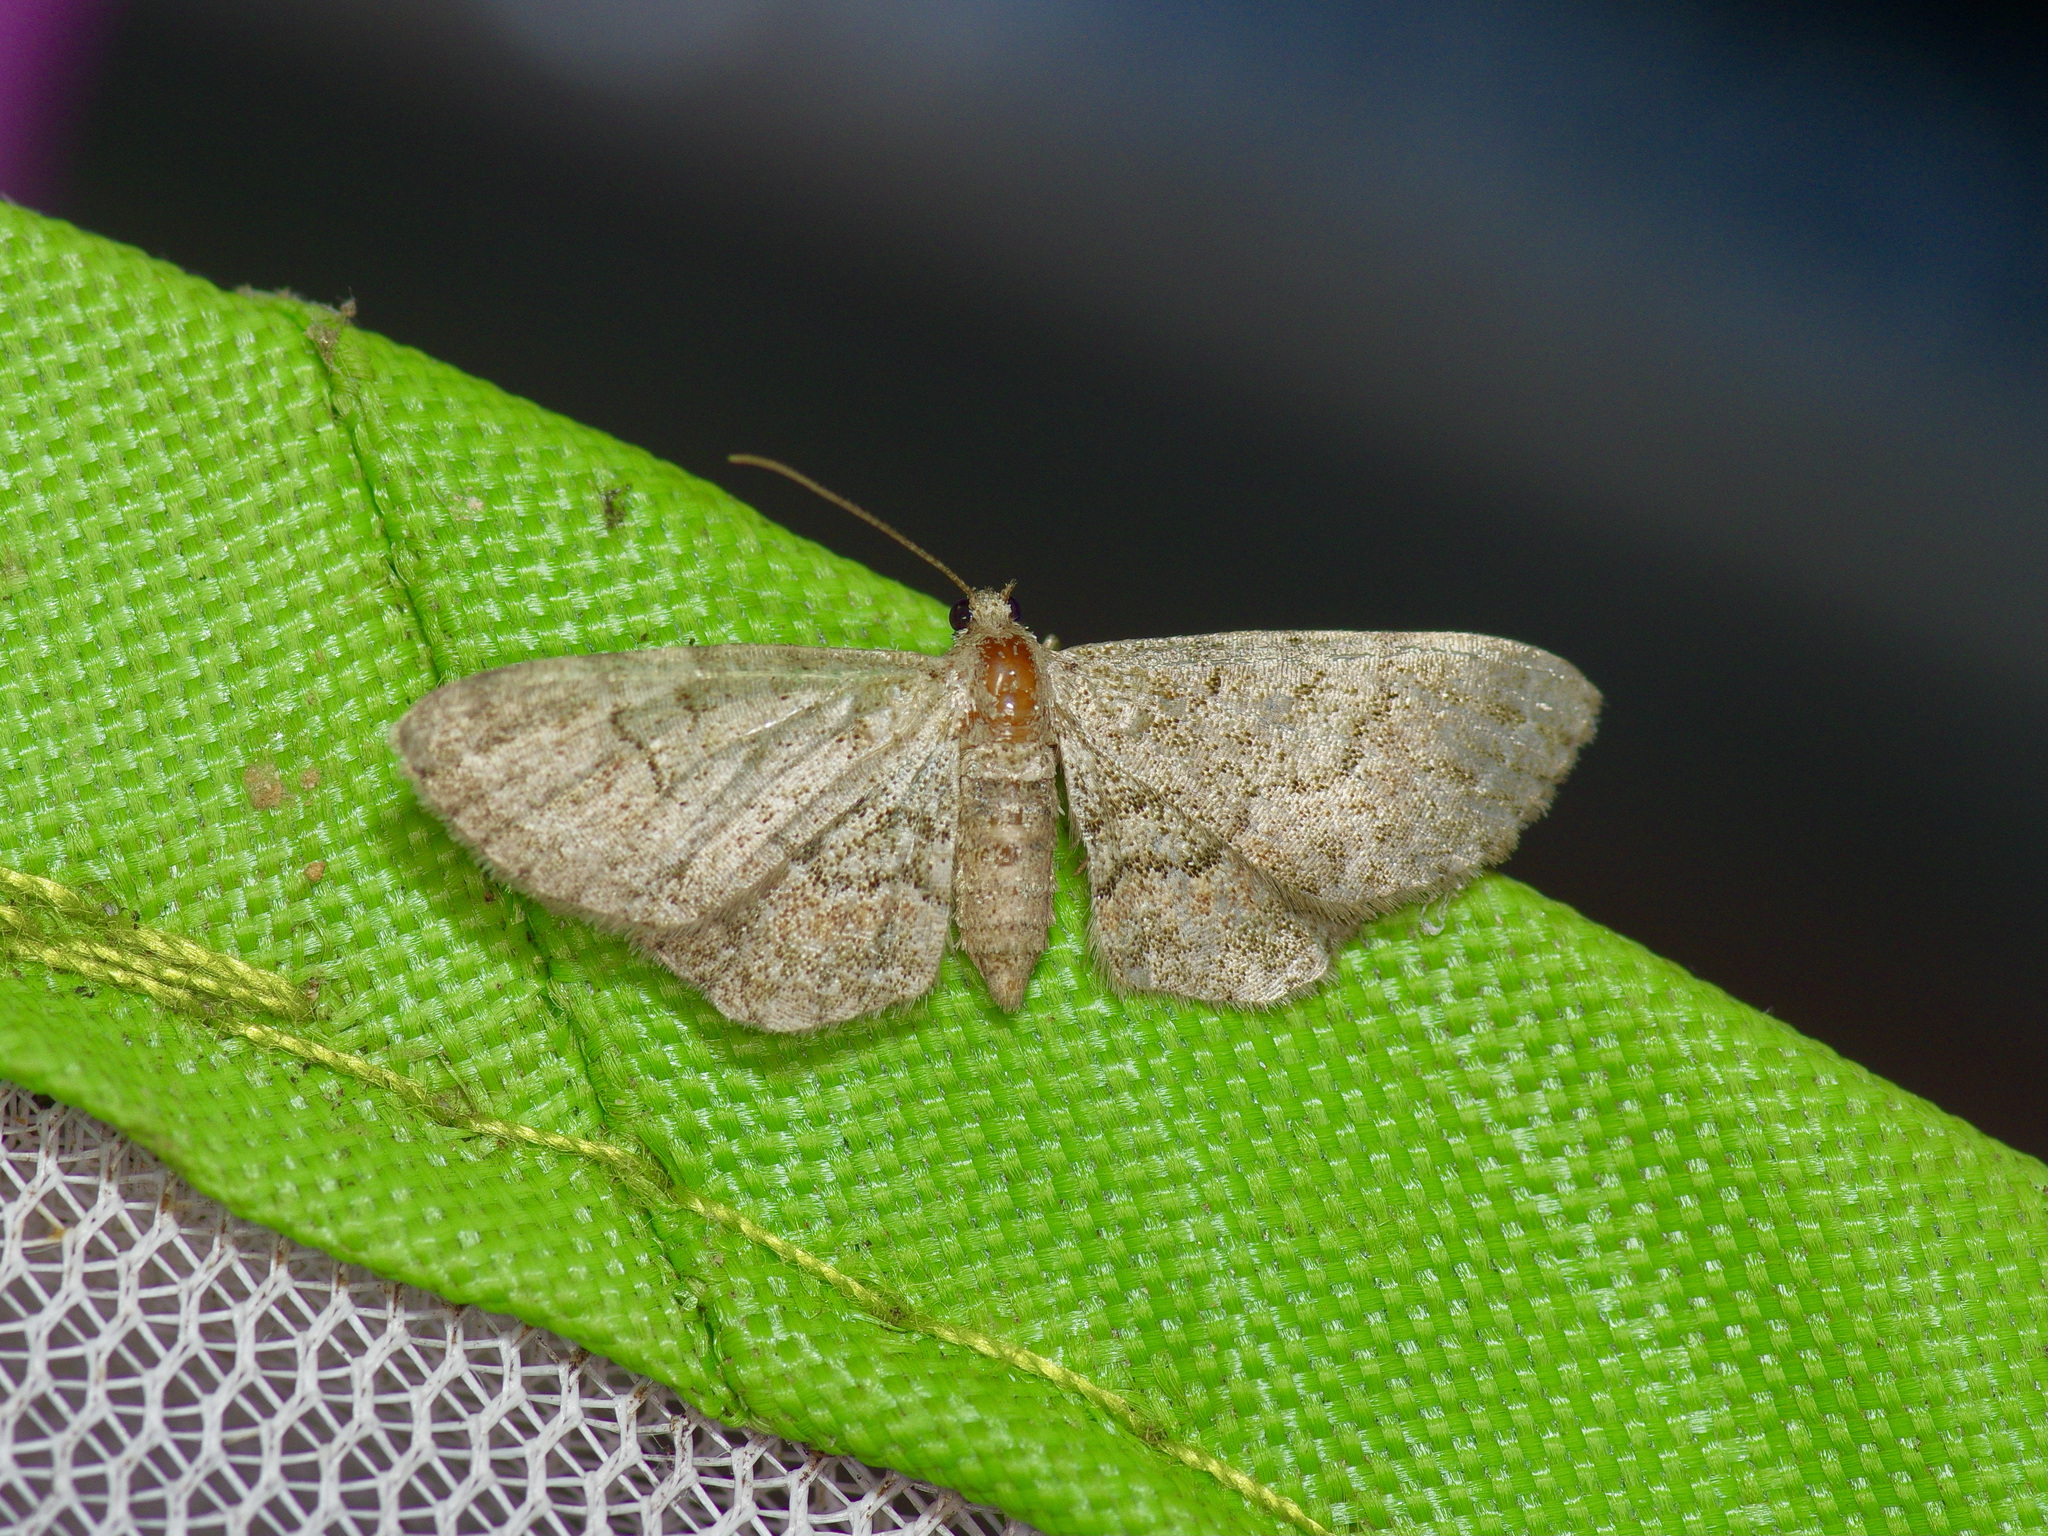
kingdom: Animalia
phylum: Arthropoda
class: Insecta
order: Lepidoptera
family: Geometridae
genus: Glenoides
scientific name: Glenoides texanaria
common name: Texas gray
